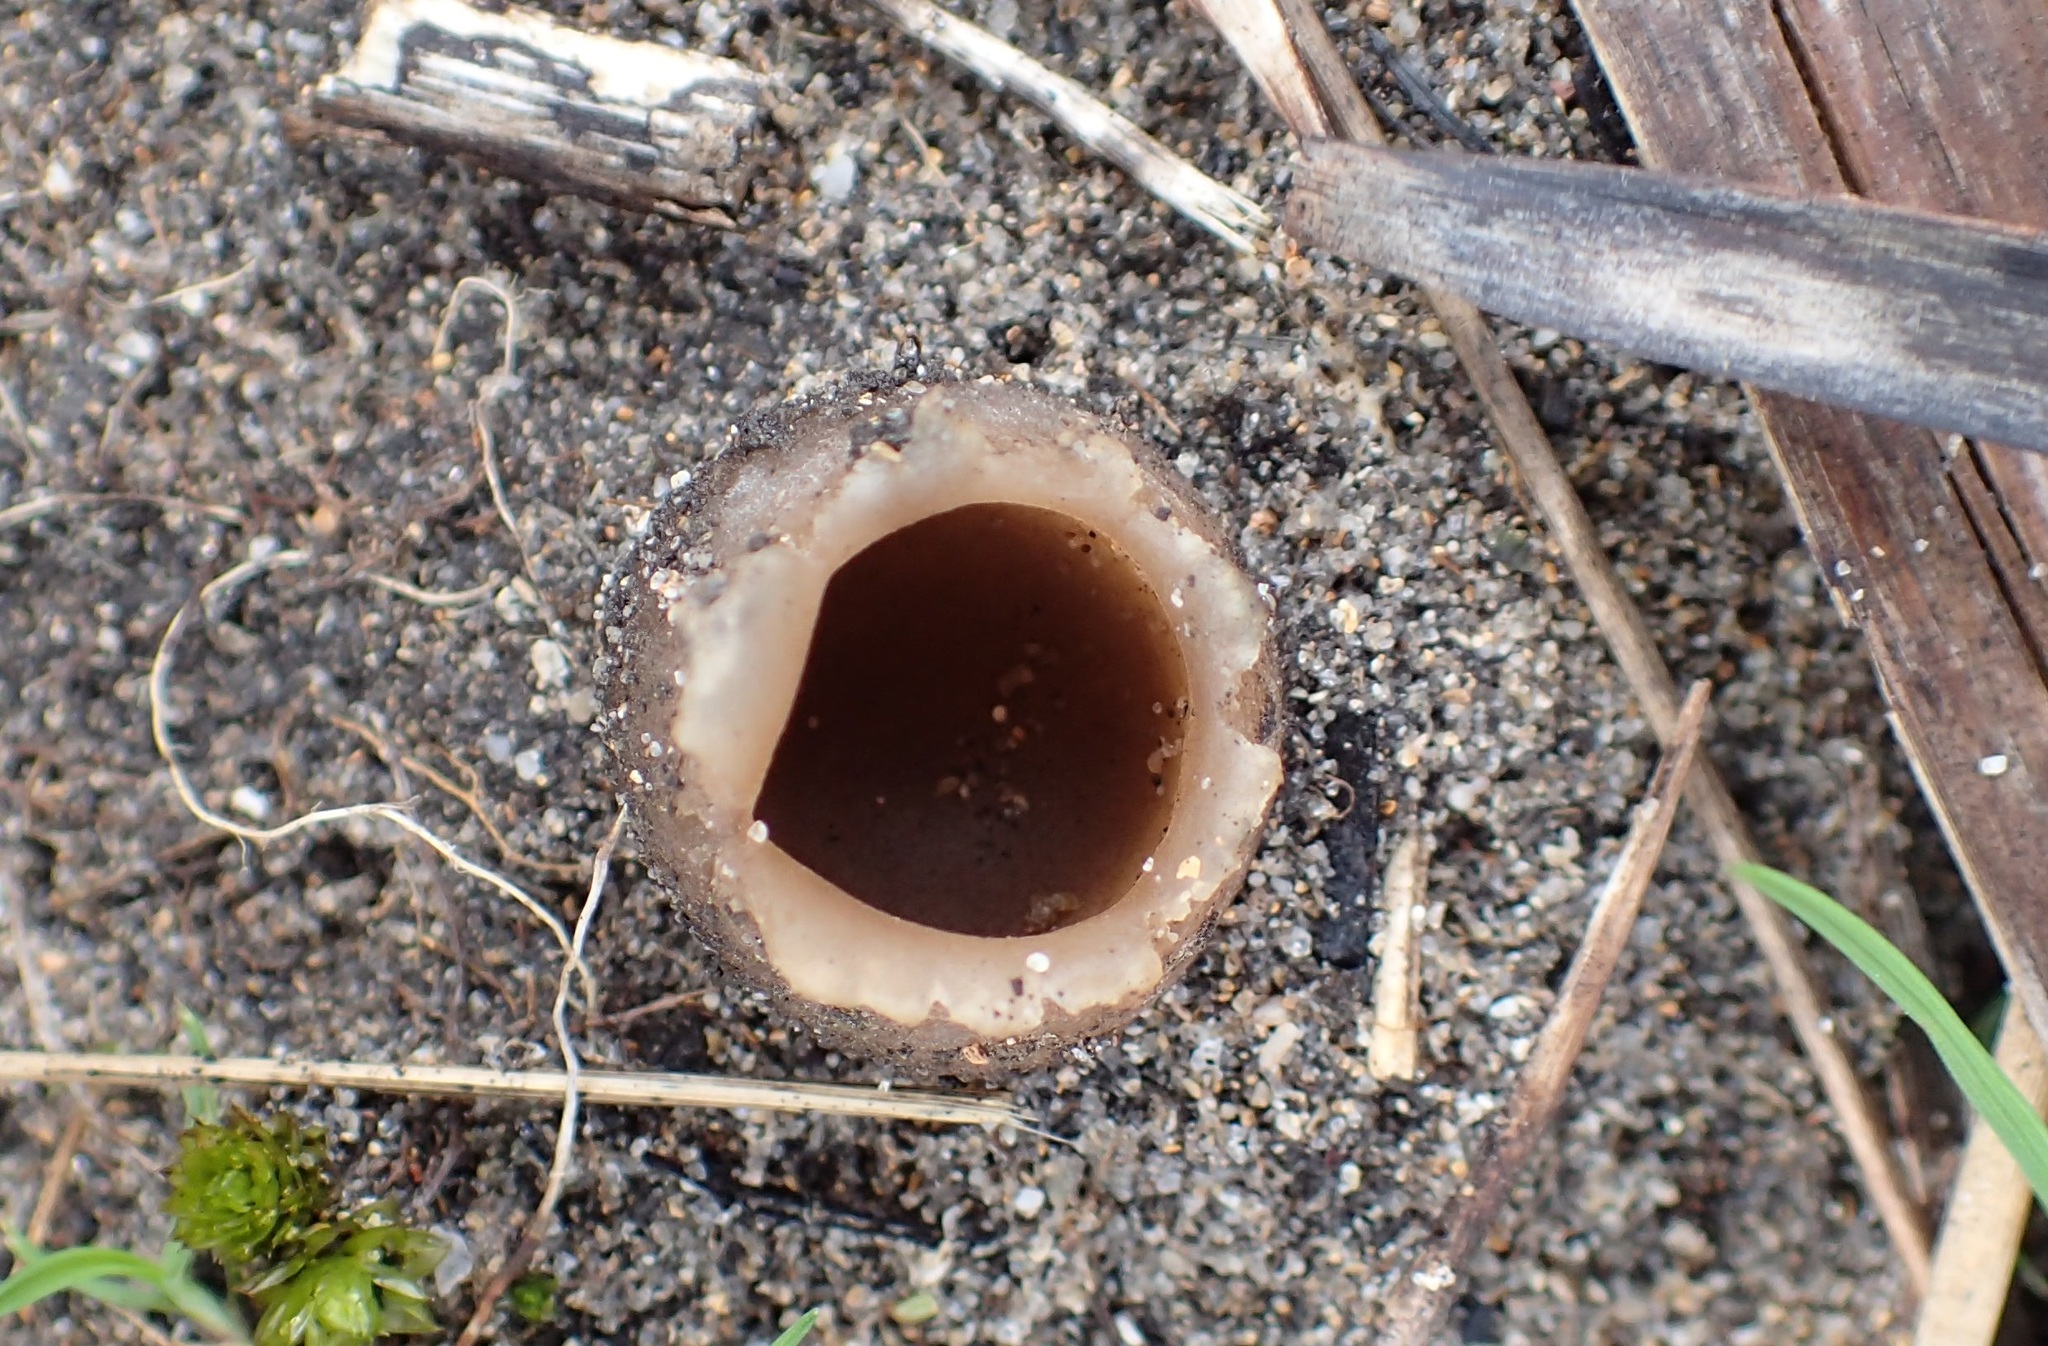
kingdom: Fungi
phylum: Ascomycota
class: Pezizomycetes
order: Pezizales
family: Pezizaceae
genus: Peziza
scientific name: Peziza austrogeaster
